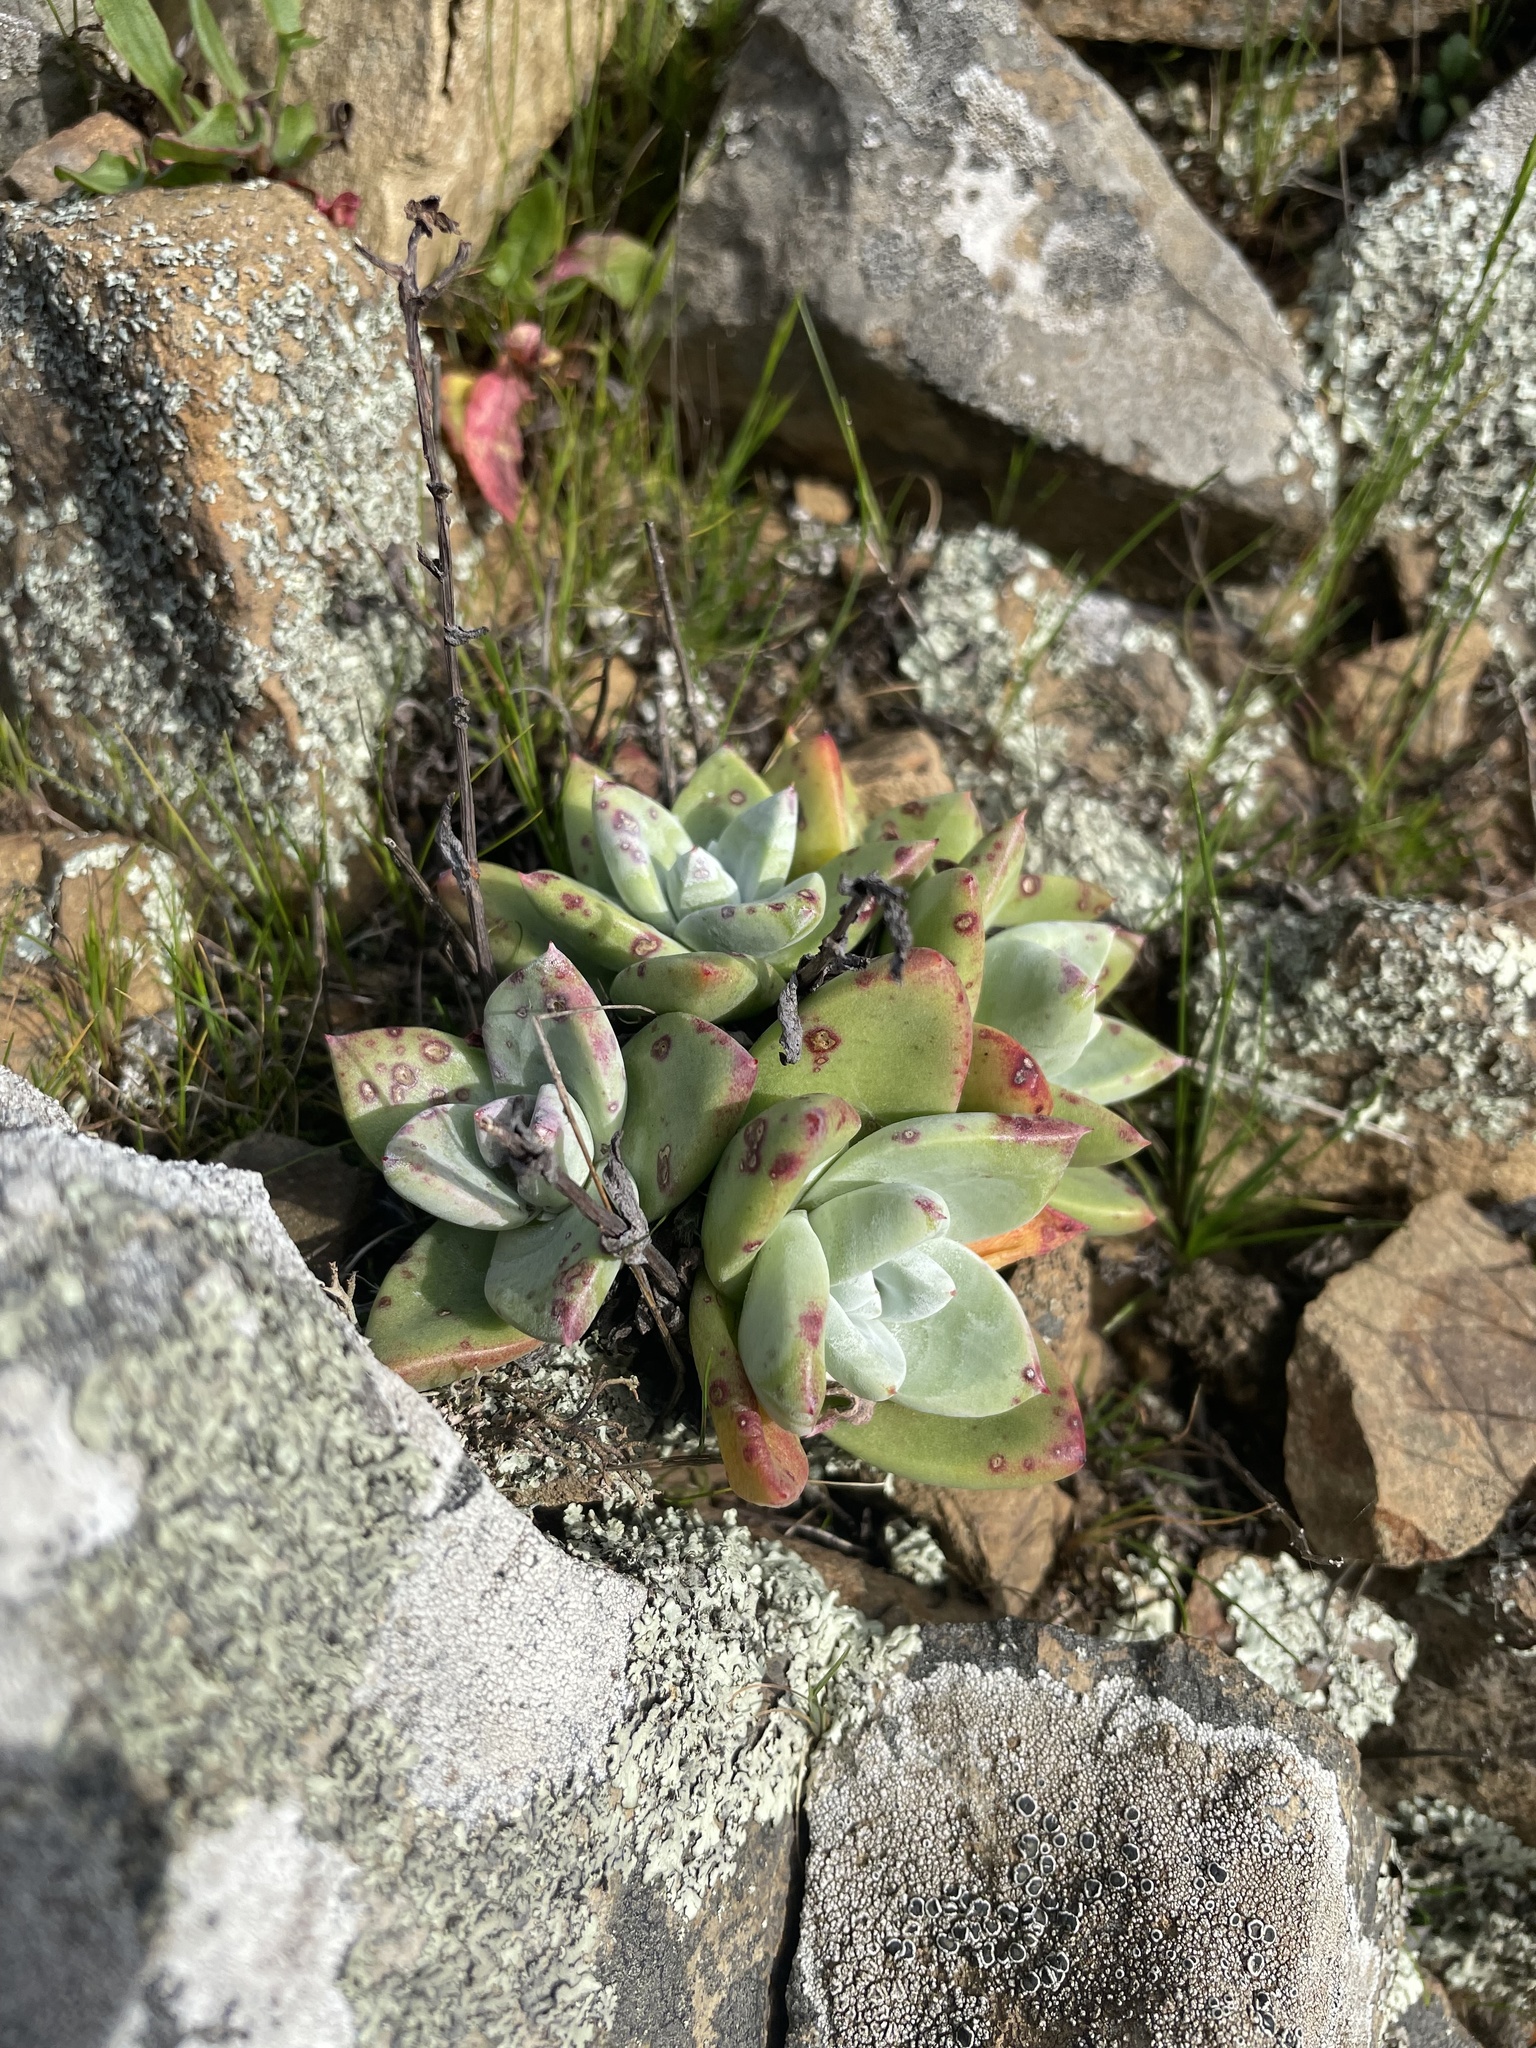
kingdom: Plantae
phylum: Tracheophyta
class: Magnoliopsida
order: Saxifragales
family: Crassulaceae
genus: Dudleya
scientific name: Dudleya farinosa
